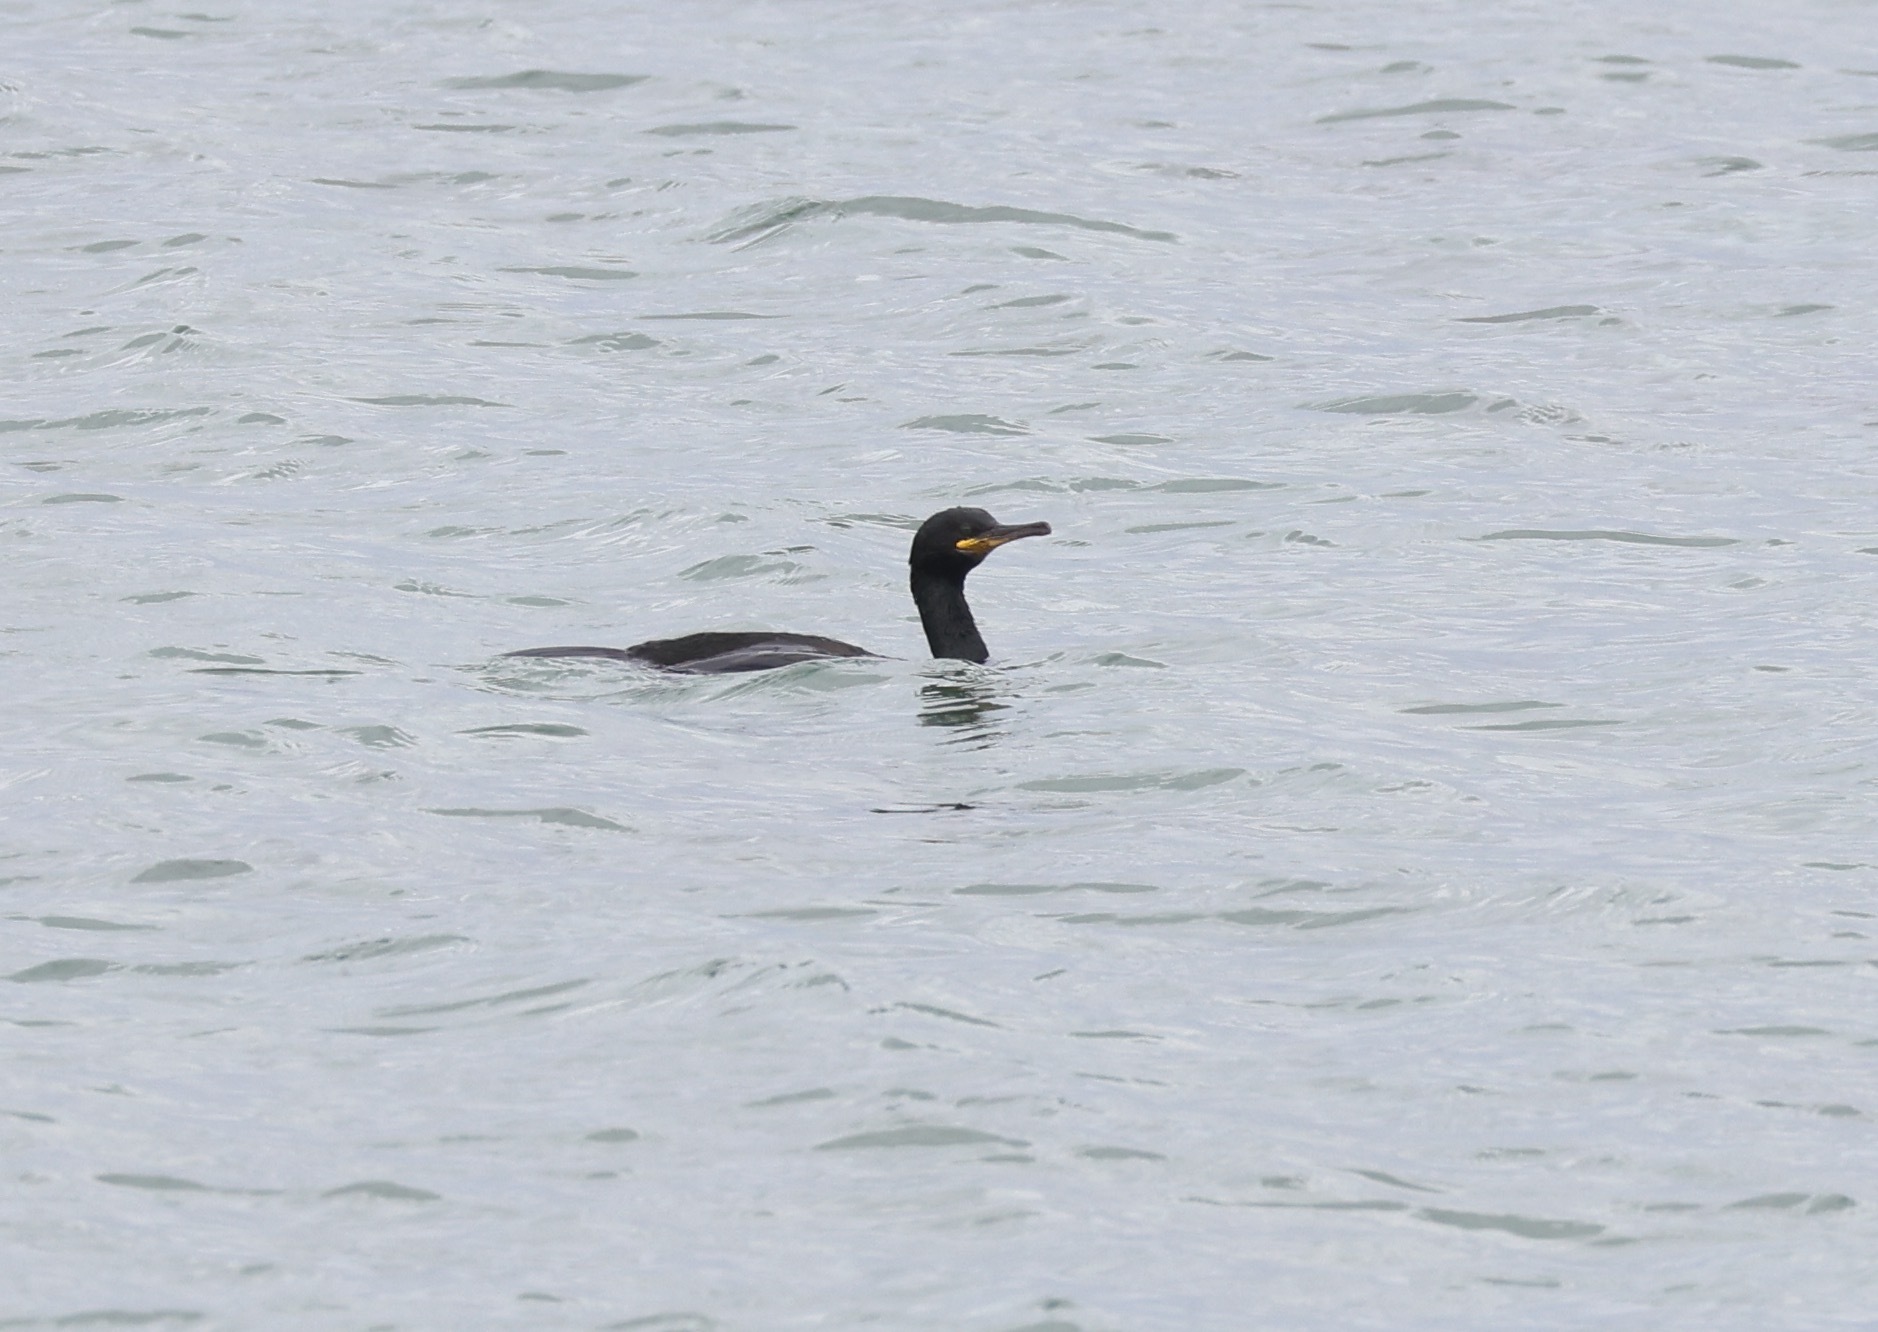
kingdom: Animalia
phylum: Chordata
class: Aves
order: Suliformes
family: Phalacrocoracidae
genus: Phalacrocorax
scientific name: Phalacrocorax aristotelis
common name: European shag
